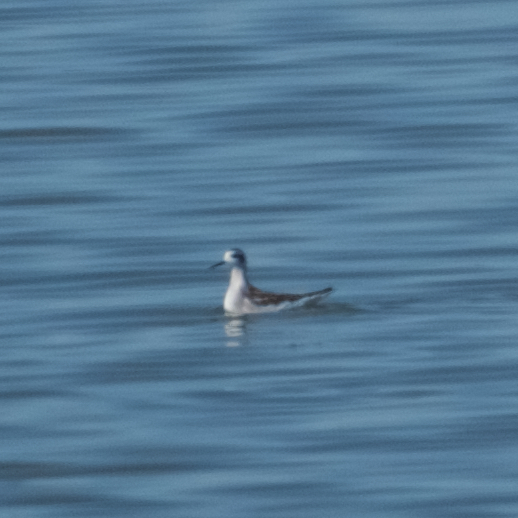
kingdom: Animalia
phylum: Chordata
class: Aves
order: Charadriiformes
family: Scolopacidae
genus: Phalaropus
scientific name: Phalaropus lobatus
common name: Red-necked phalarope
